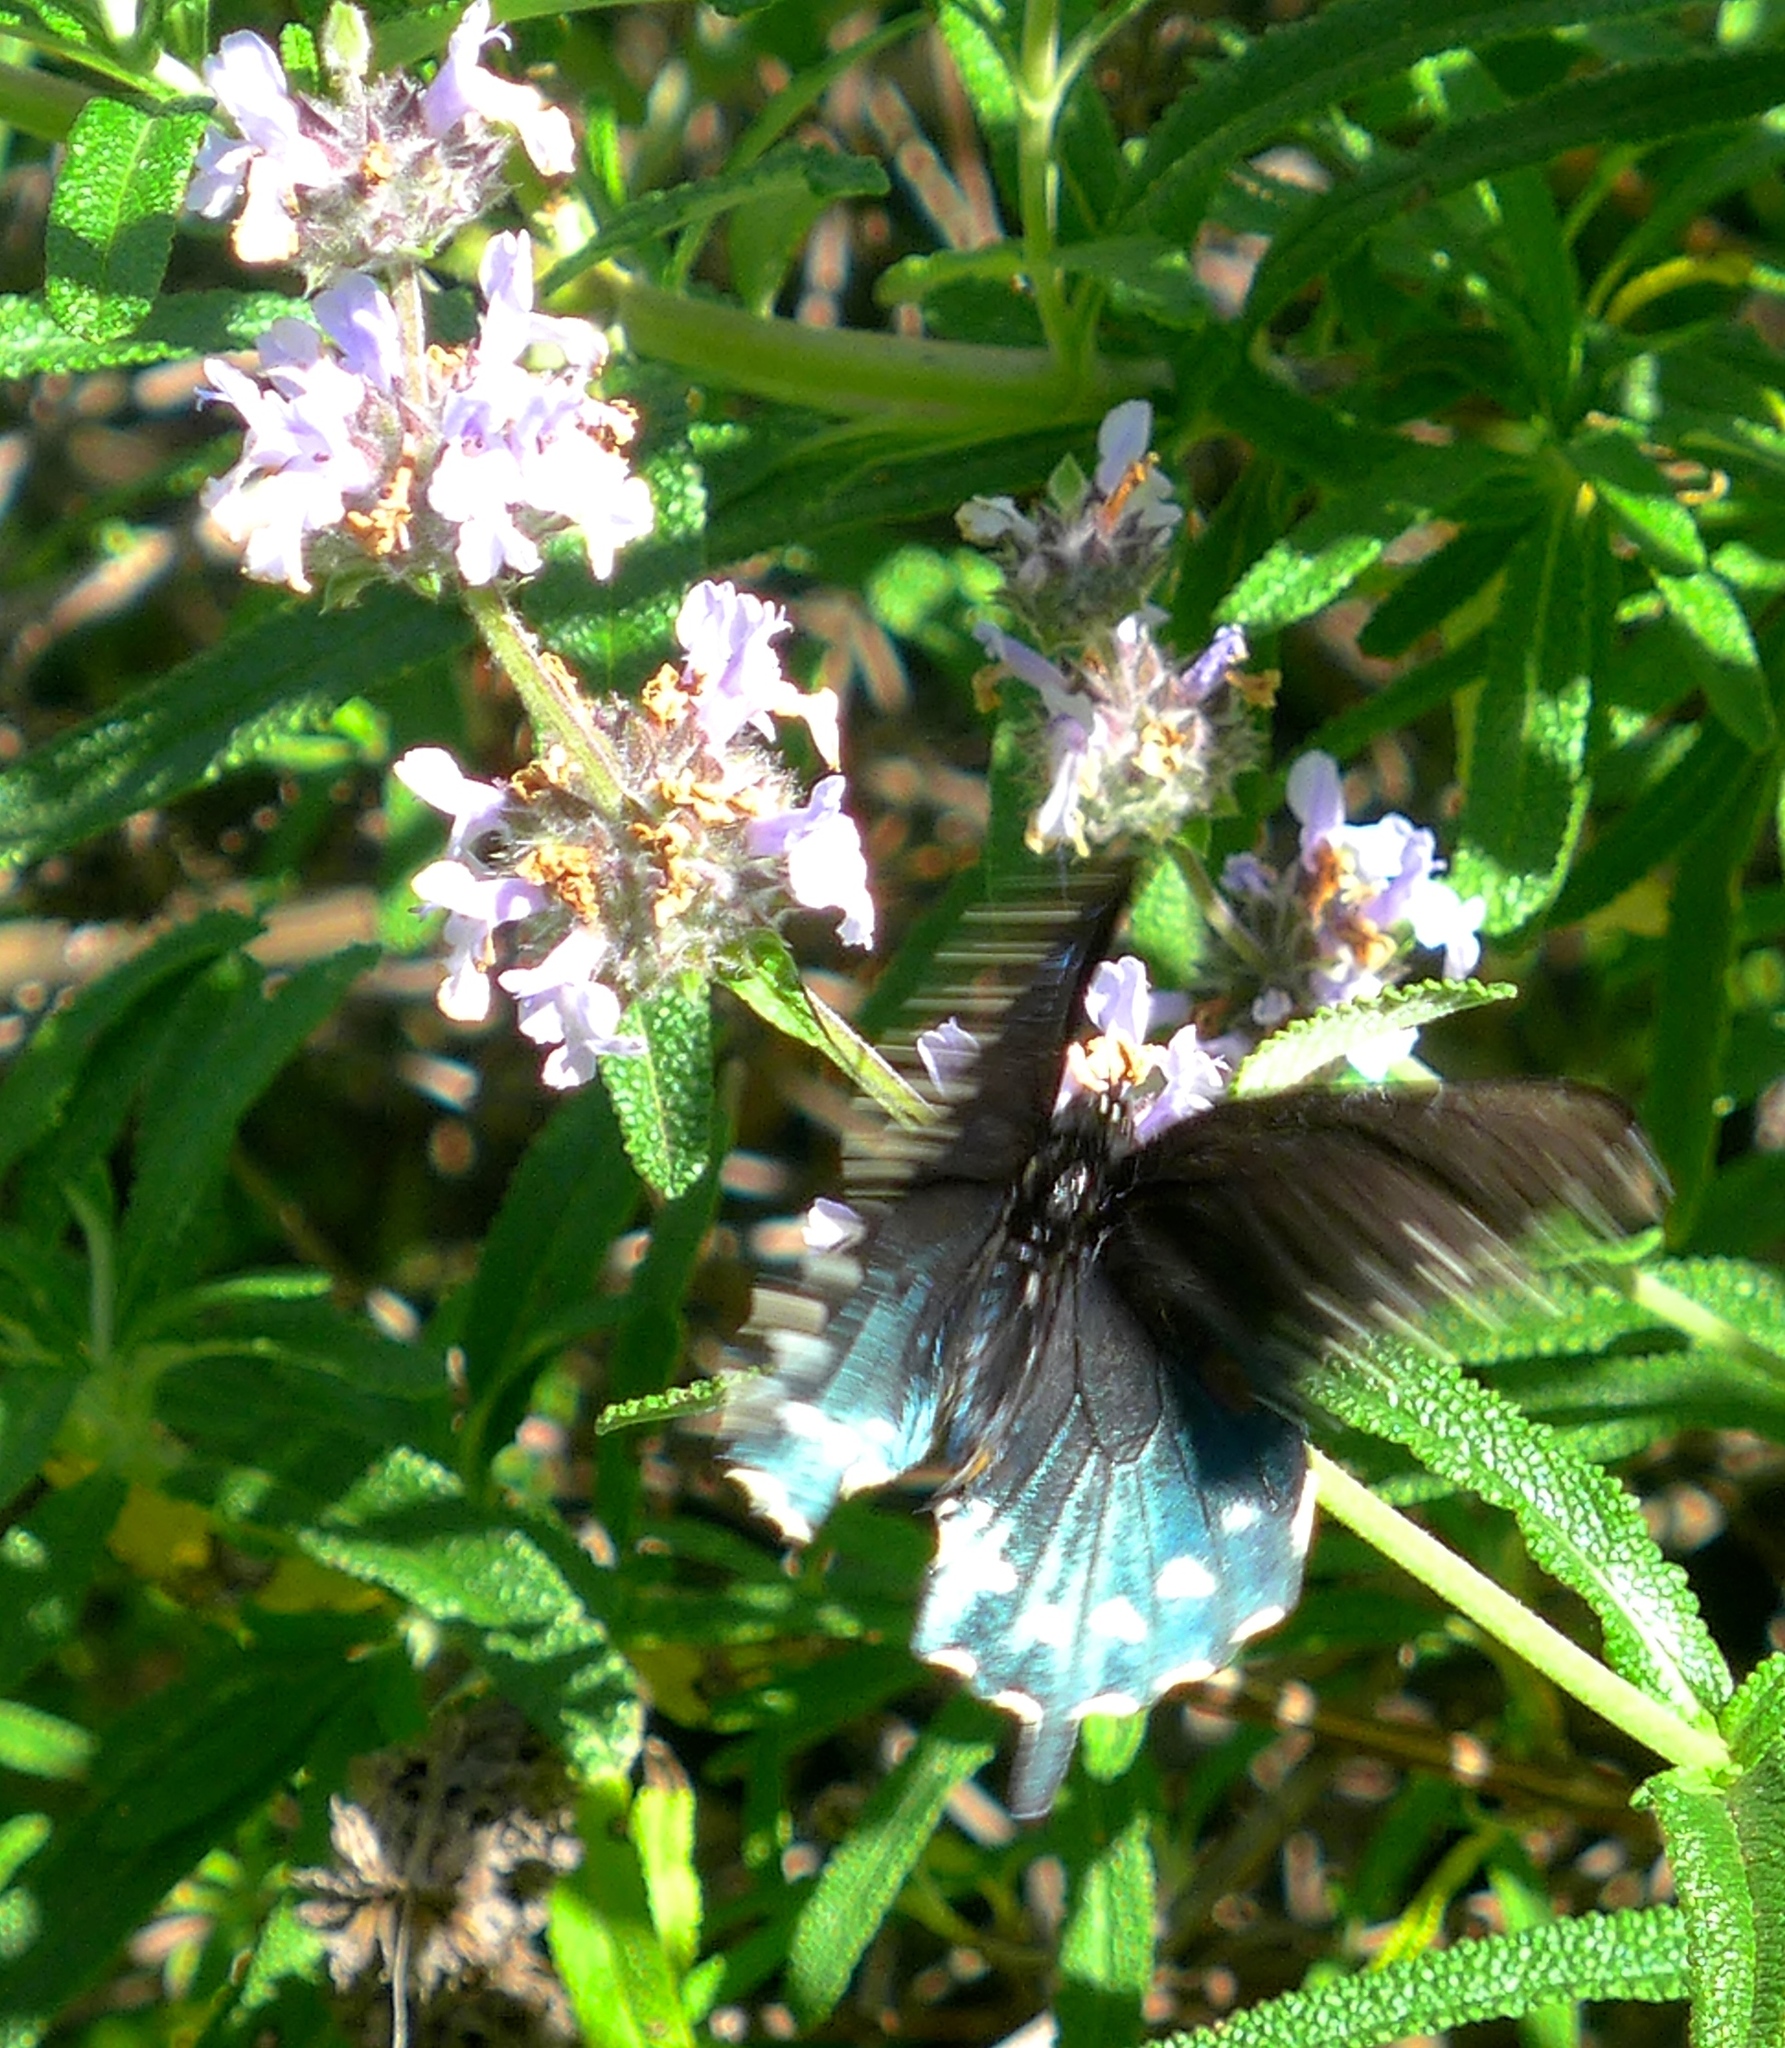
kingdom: Animalia
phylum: Arthropoda
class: Insecta
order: Lepidoptera
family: Papilionidae
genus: Battus
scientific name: Battus philenor
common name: Pipevine swallowtail
